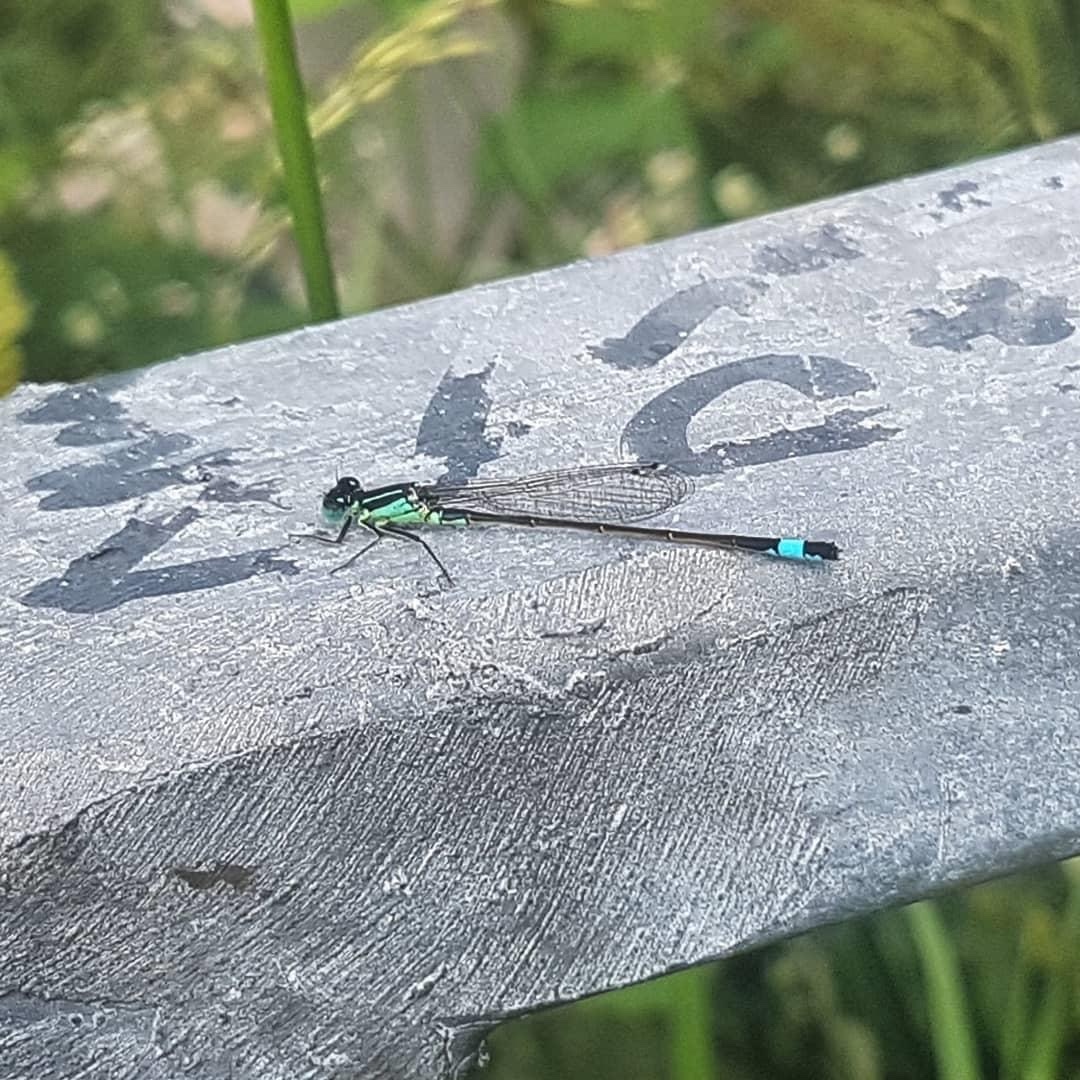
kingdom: Animalia
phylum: Arthropoda
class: Insecta
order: Odonata
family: Coenagrionidae
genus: Ischnura
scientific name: Ischnura elegans
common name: Blue-tailed damselfly
